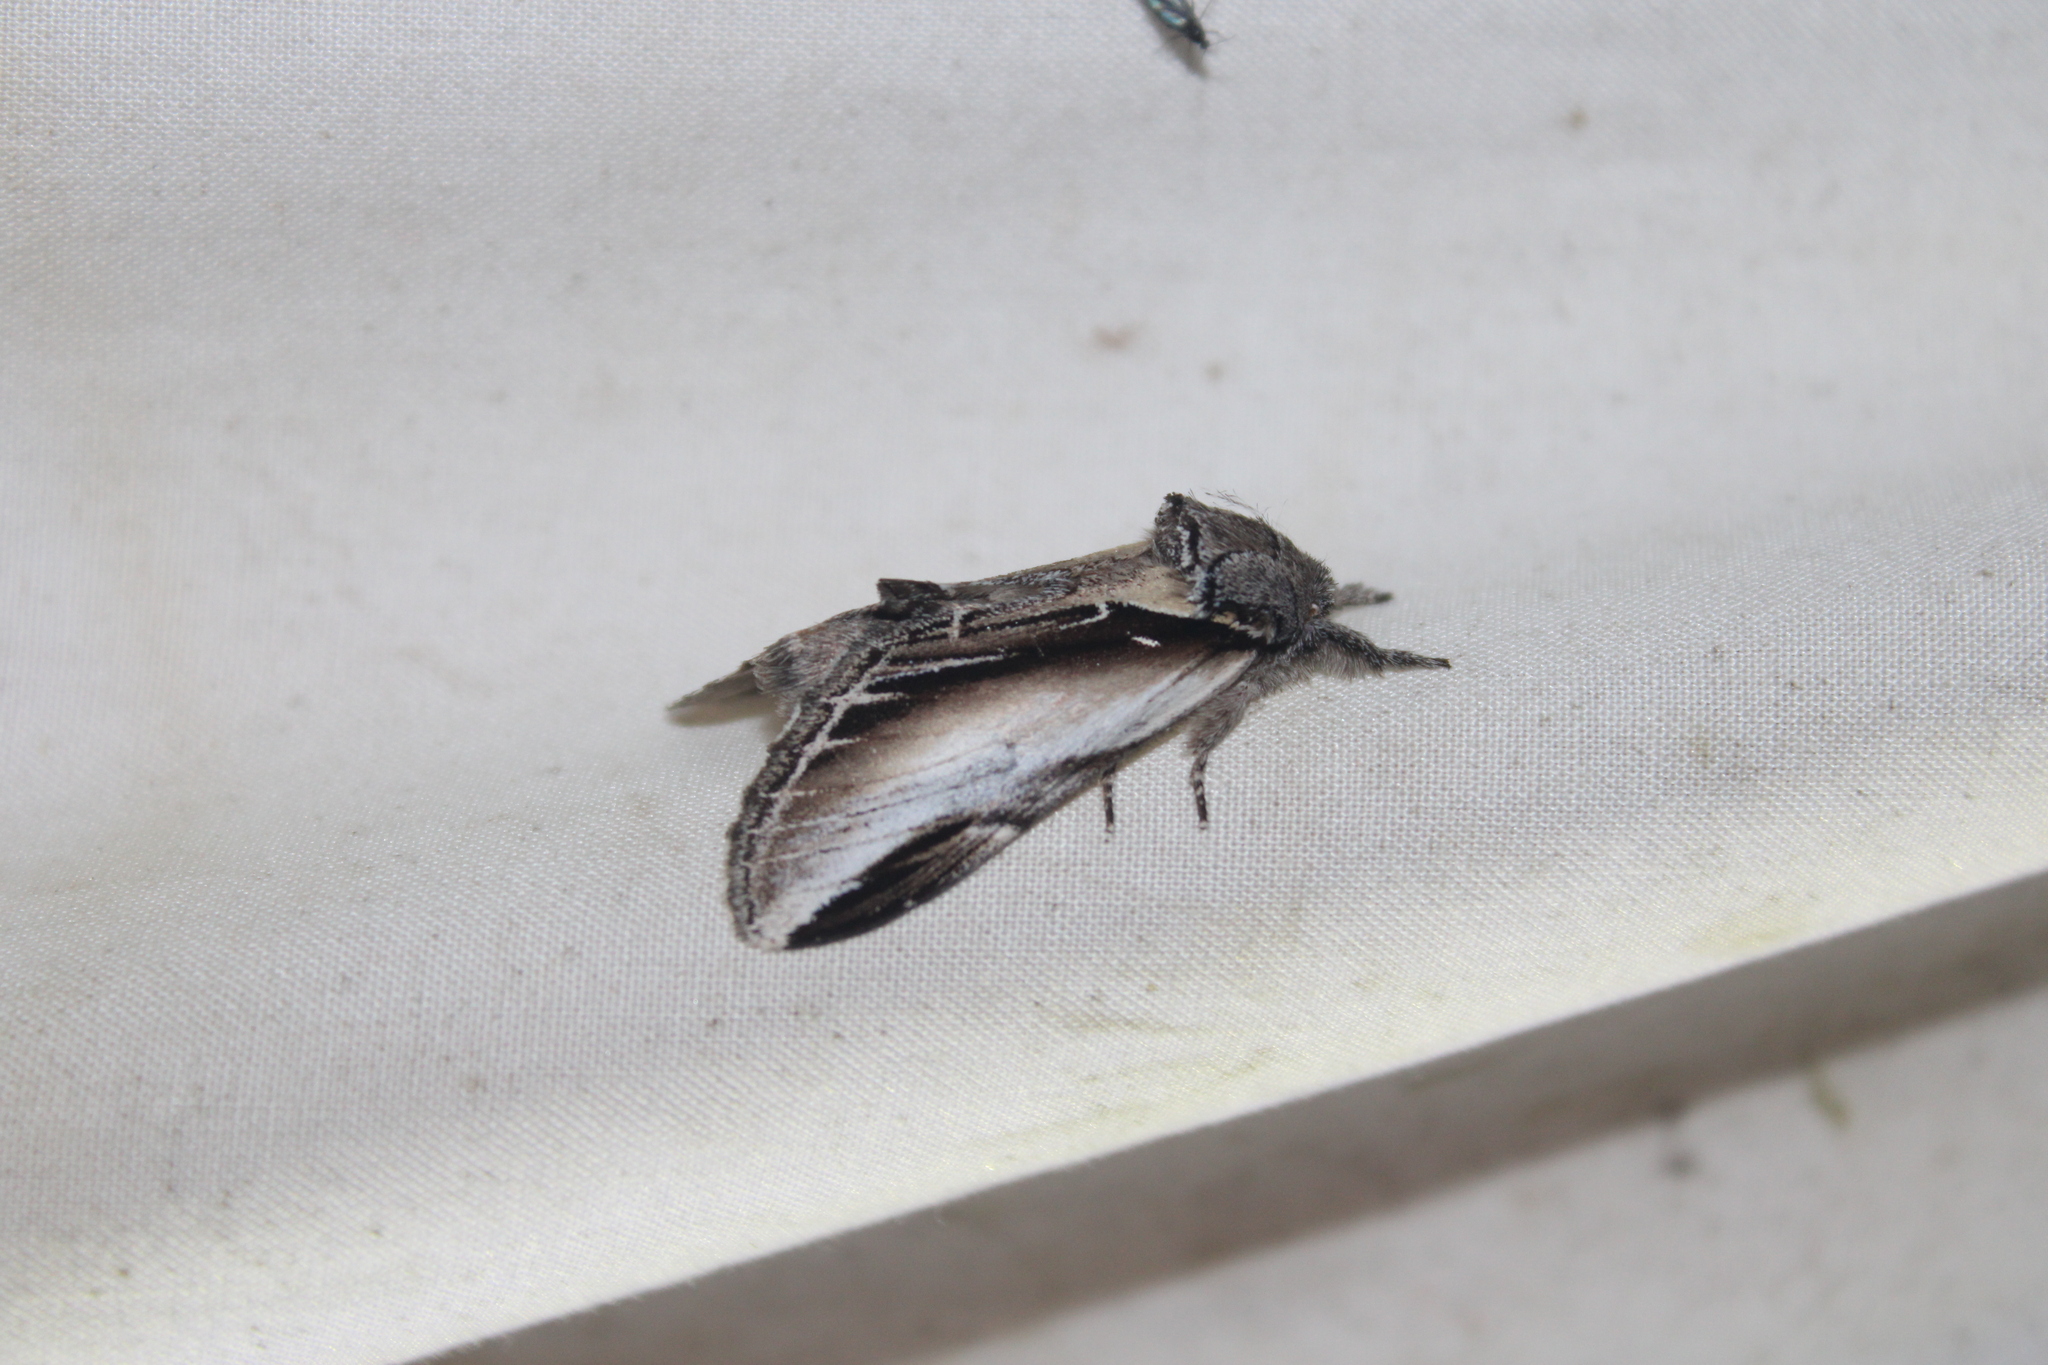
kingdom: Animalia
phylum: Arthropoda
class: Insecta
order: Lepidoptera
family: Notodontidae
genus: Pheosia
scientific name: Pheosia rimosa
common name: Black-rimmed prominent
